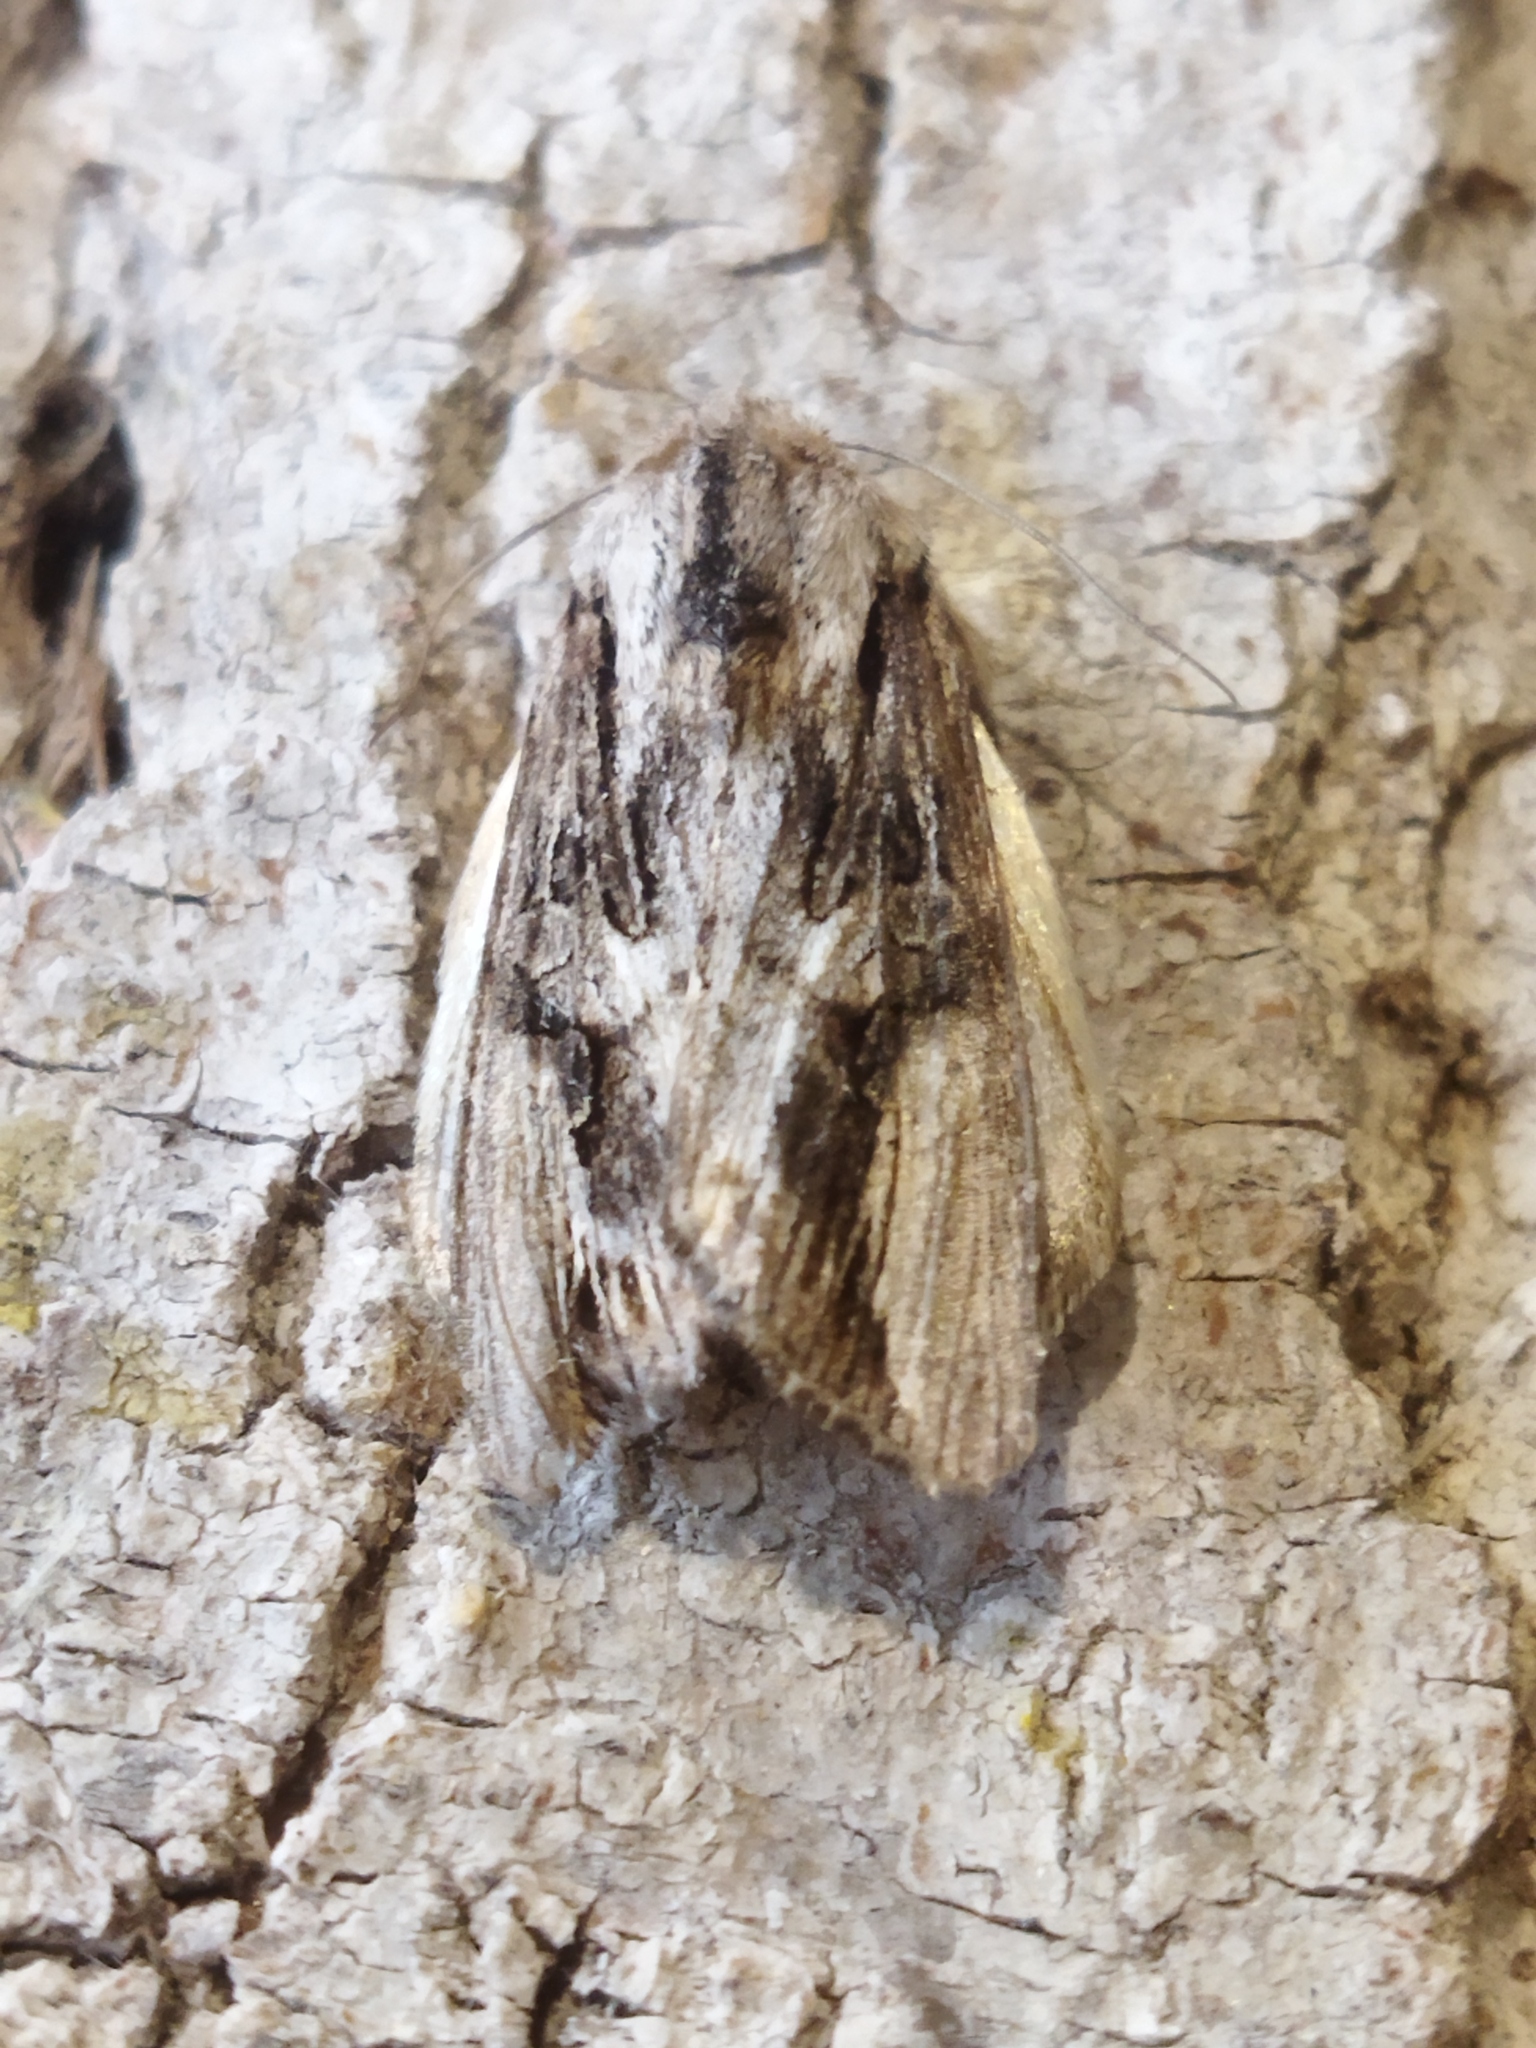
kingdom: Animalia
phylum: Arthropoda
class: Insecta
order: Lepidoptera
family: Noctuidae
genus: Egira
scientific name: Egira conspicillaris
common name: Silver cloud
